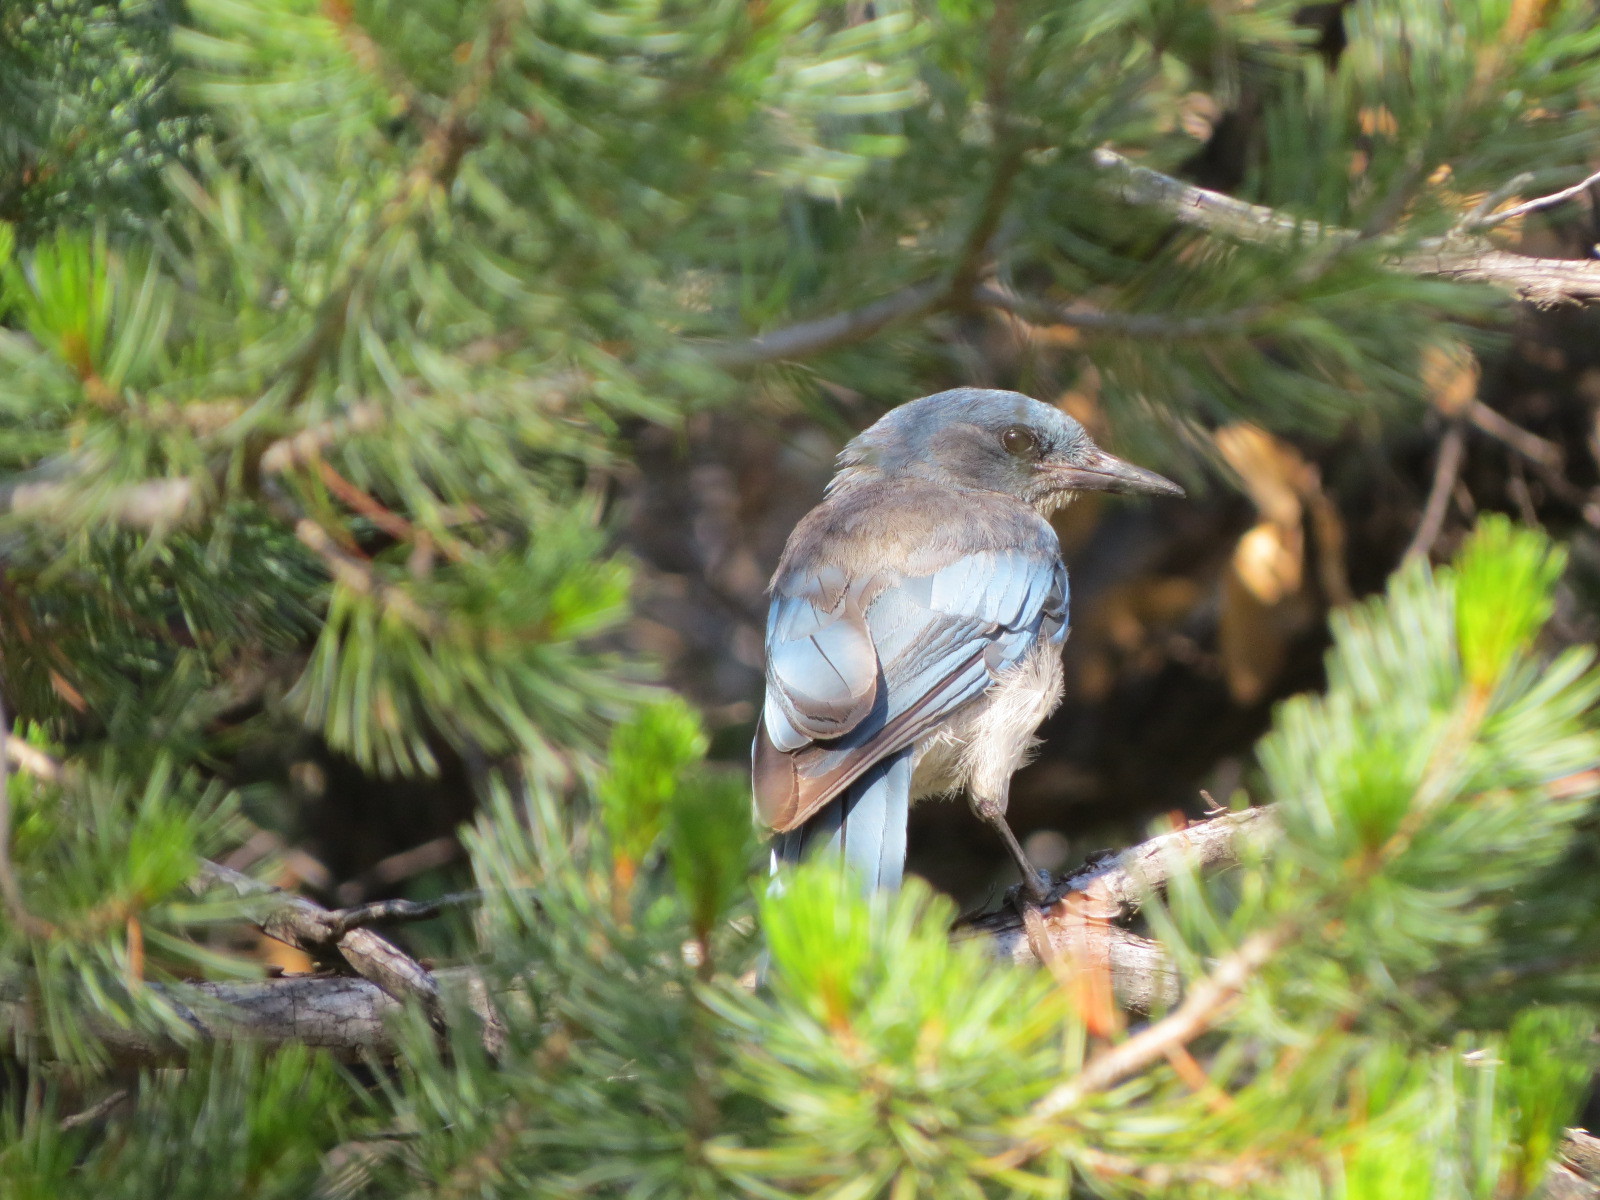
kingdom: Animalia
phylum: Chordata
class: Aves
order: Passeriformes
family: Corvidae
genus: Aphelocoma
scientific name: Aphelocoma wollweberi
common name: Mexican jay
